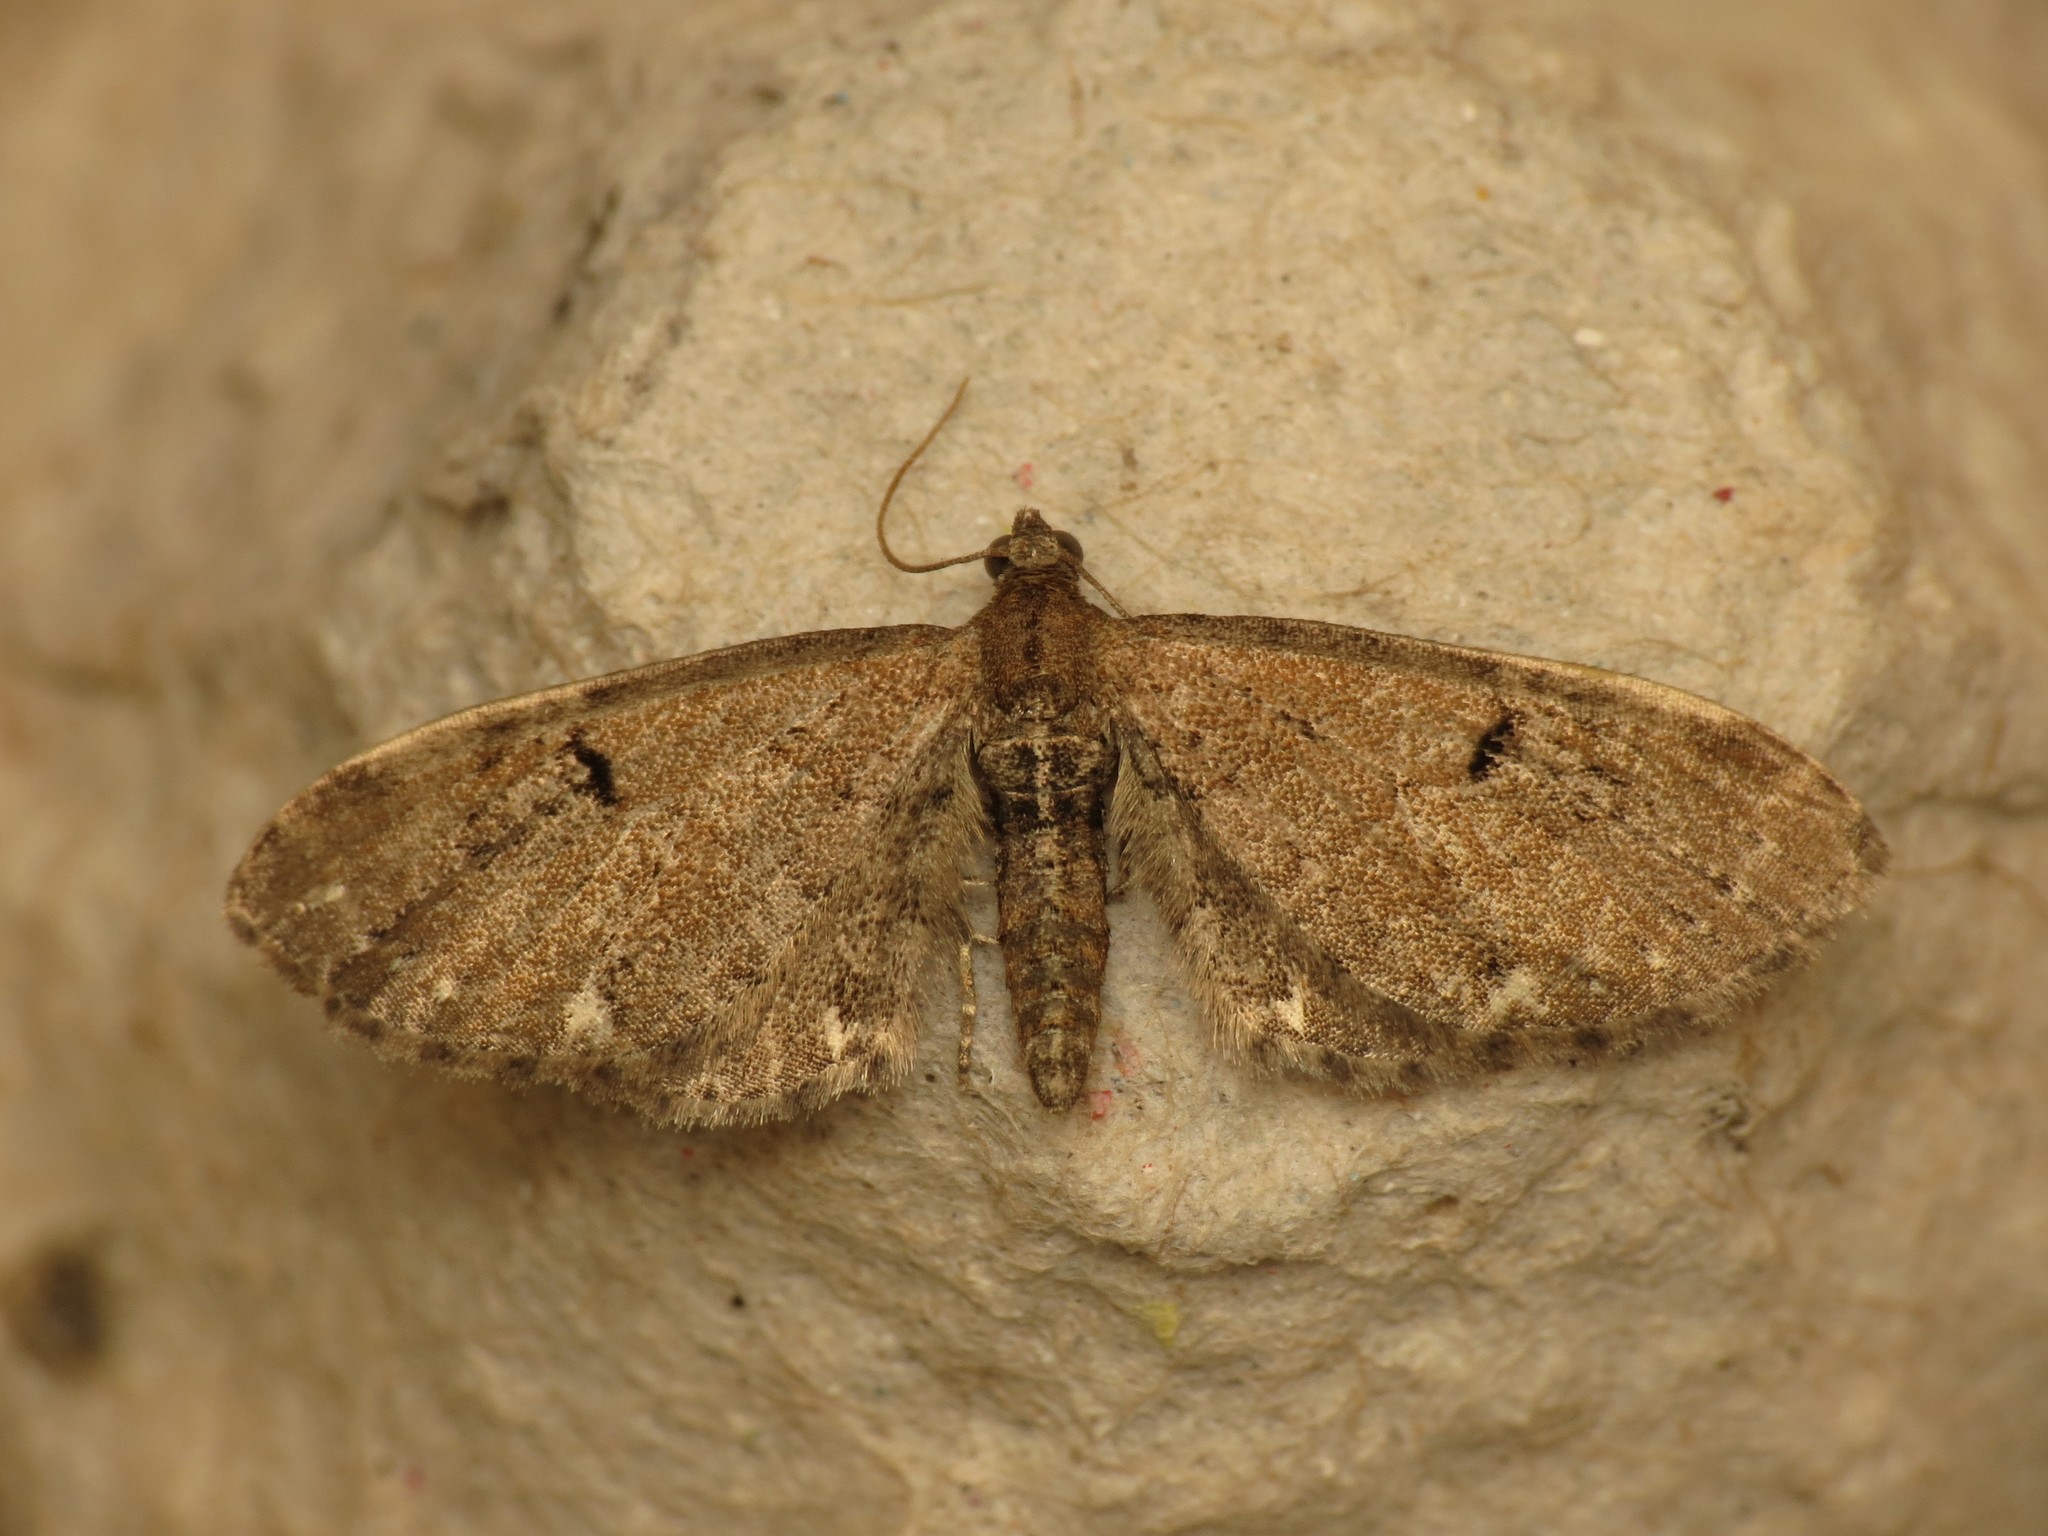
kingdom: Animalia
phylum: Arthropoda
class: Insecta
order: Lepidoptera
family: Geometridae
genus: Eupithecia
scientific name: Eupithecia assimilata
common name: Currant pug
